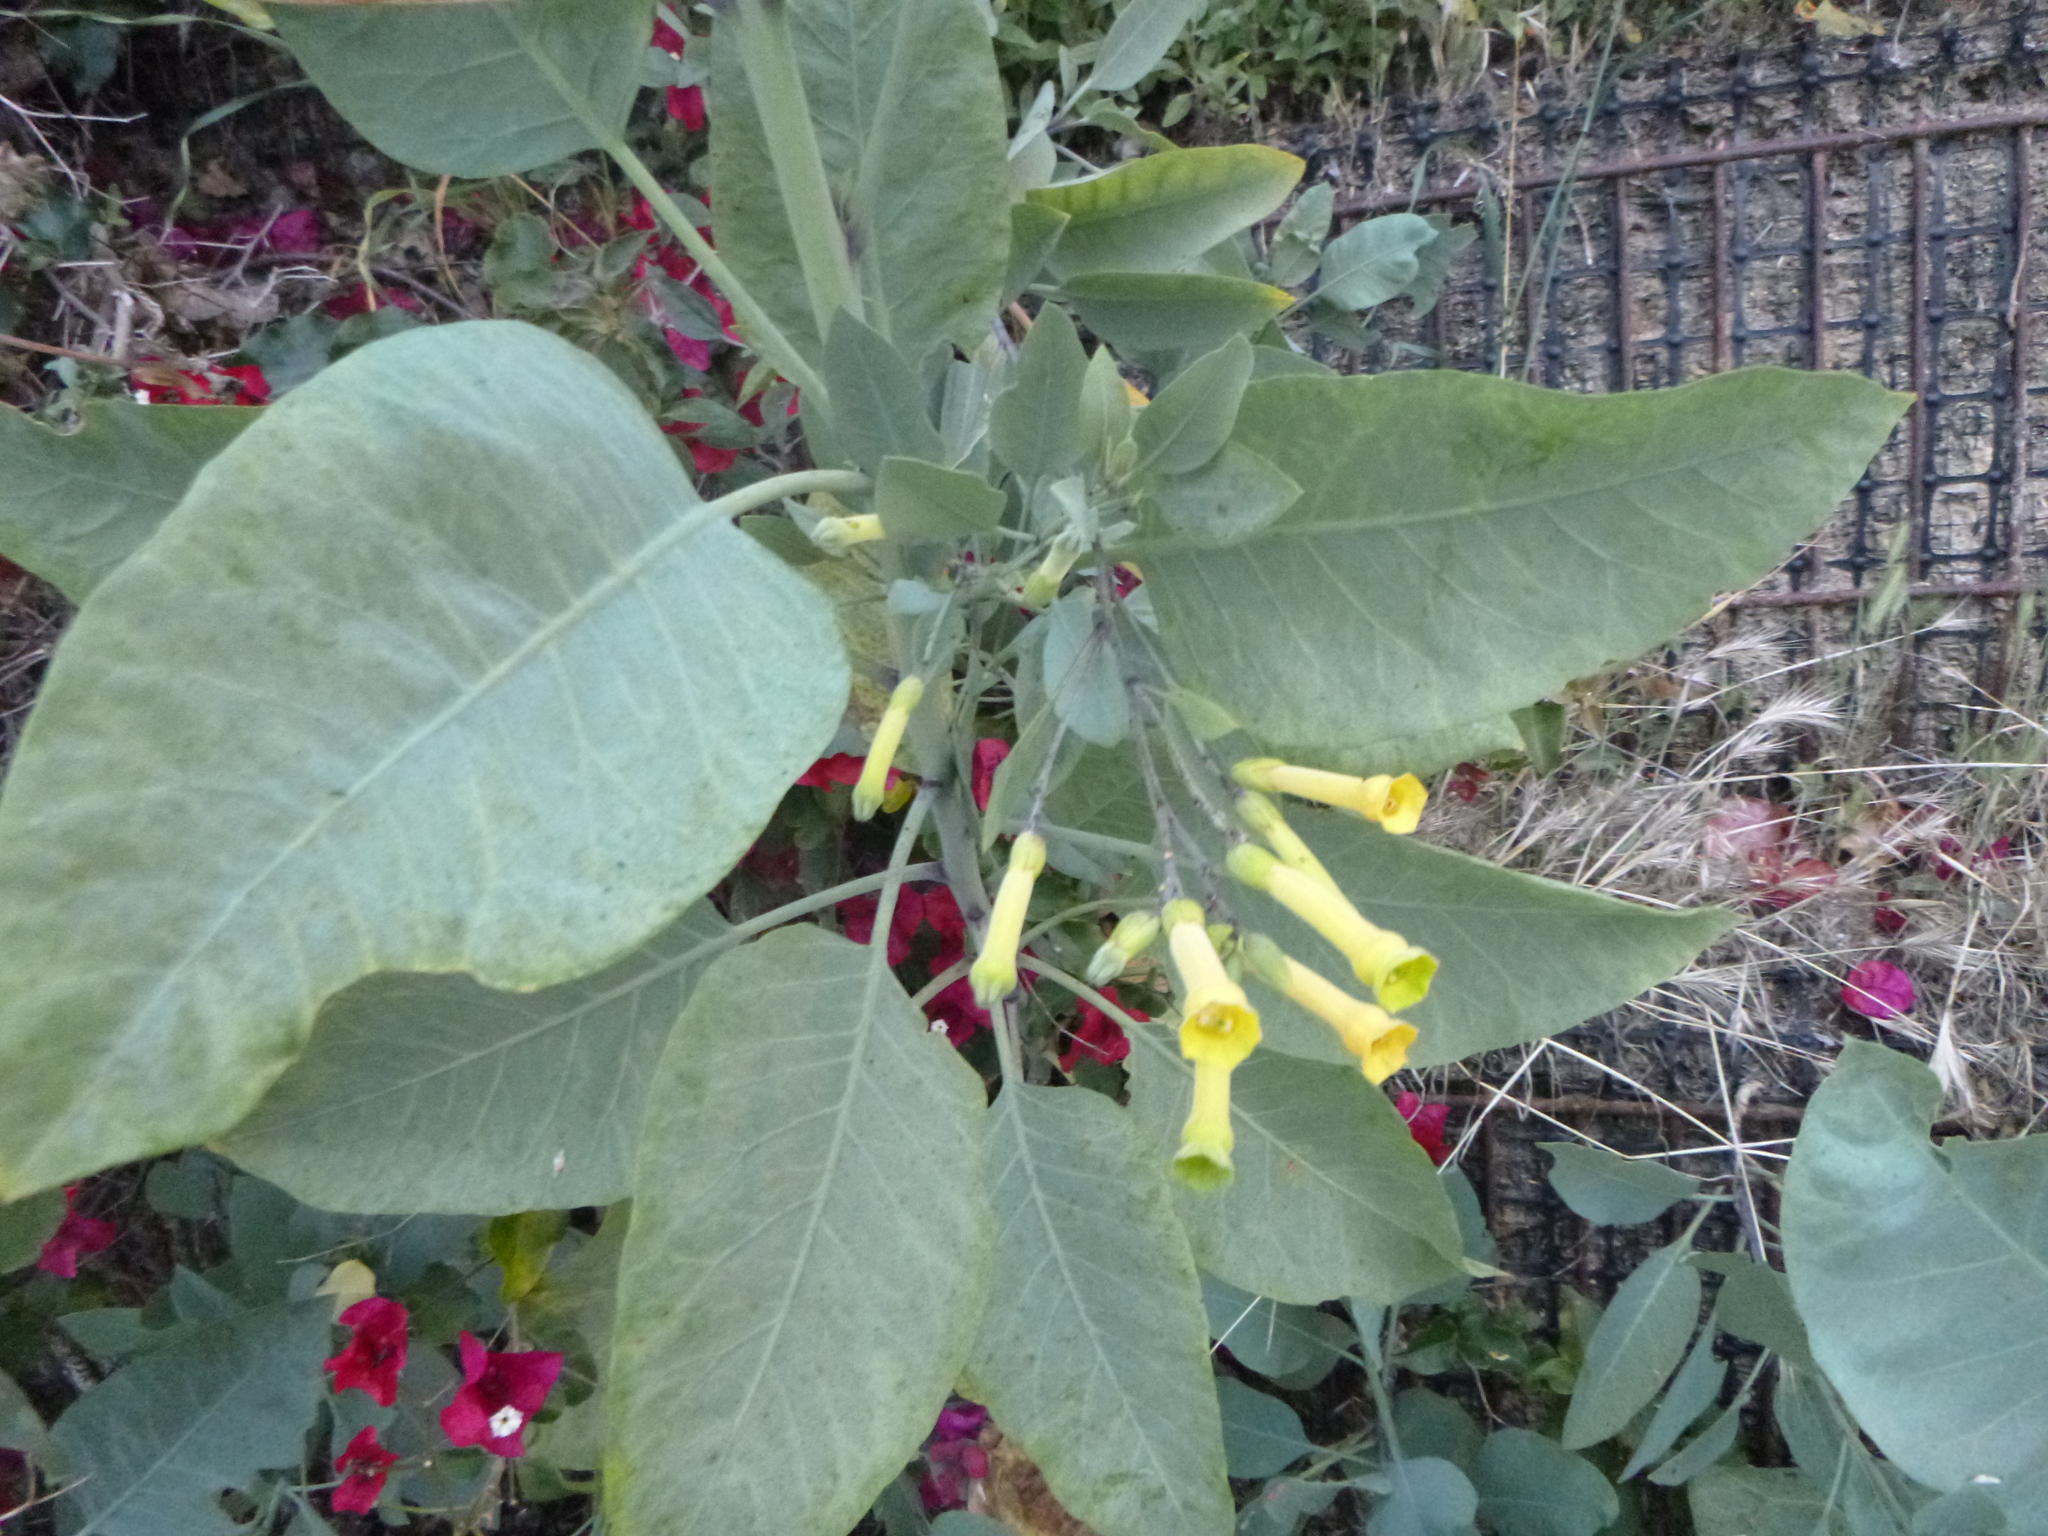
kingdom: Plantae
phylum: Tracheophyta
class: Magnoliopsida
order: Solanales
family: Solanaceae
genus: Nicotiana
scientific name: Nicotiana glauca
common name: Tree tobacco
